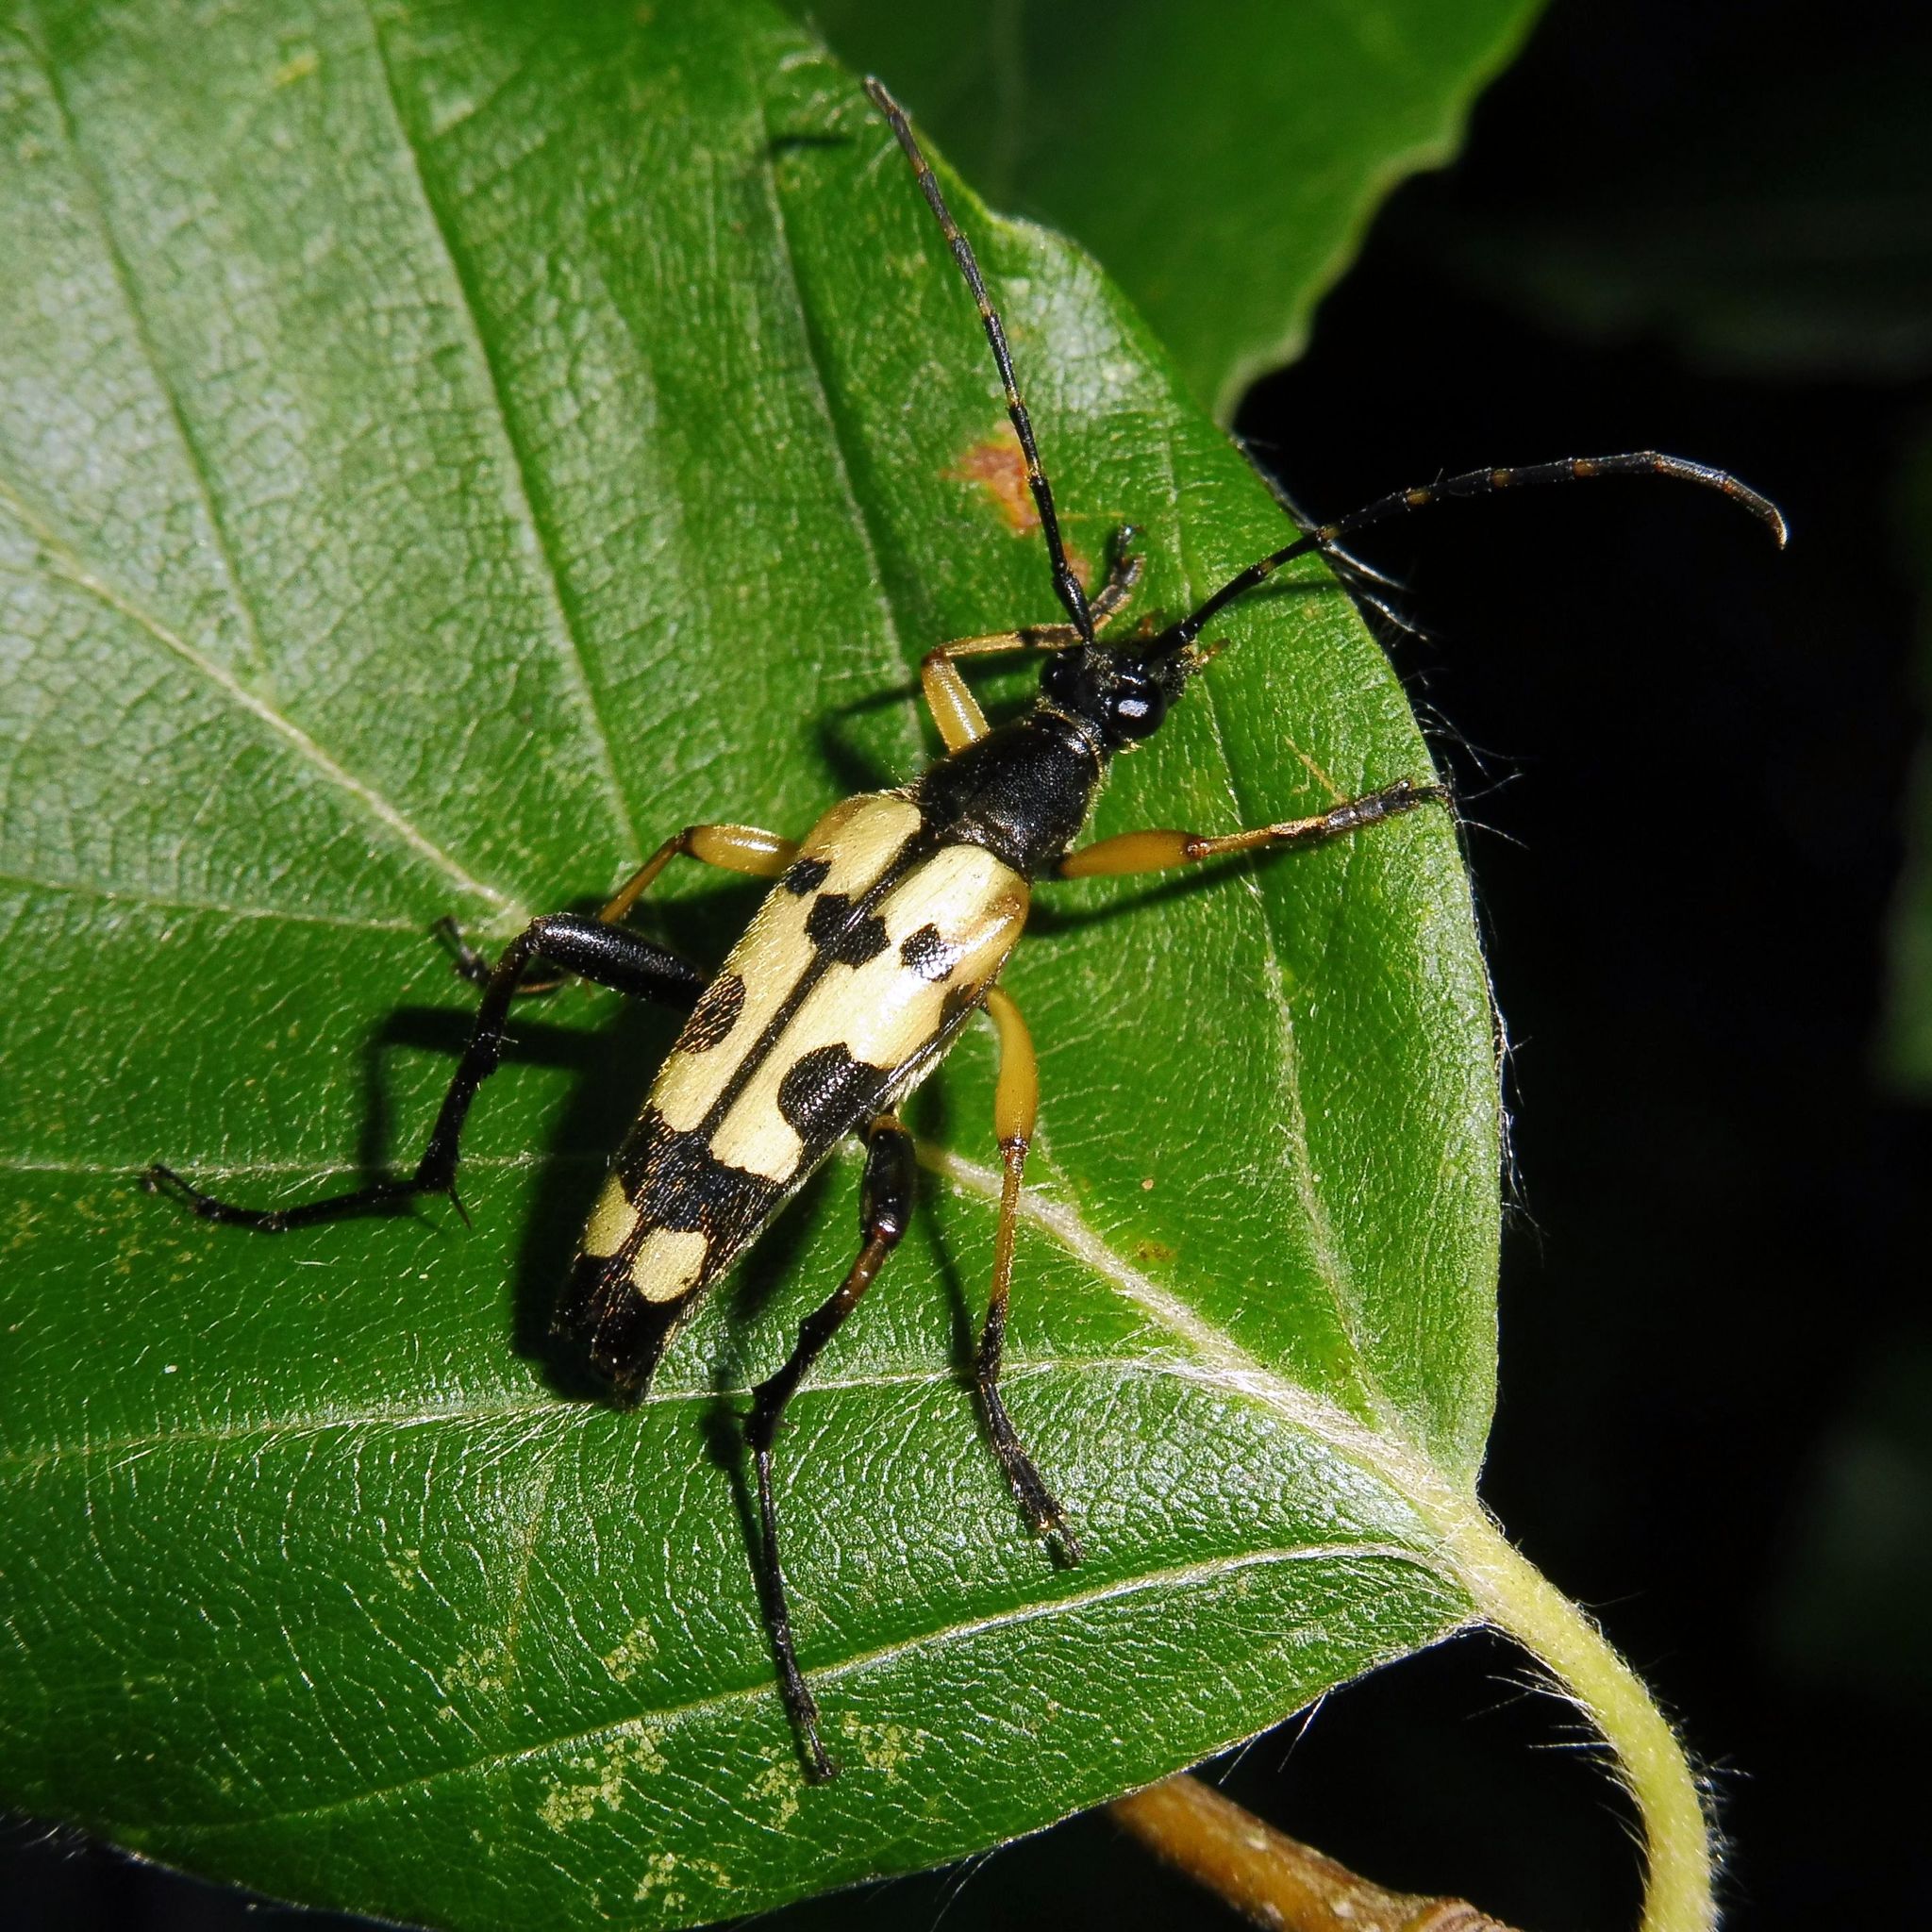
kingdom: Animalia
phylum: Arthropoda
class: Insecta
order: Coleoptera
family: Cerambycidae
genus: Rutpela
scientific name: Rutpela maculata
